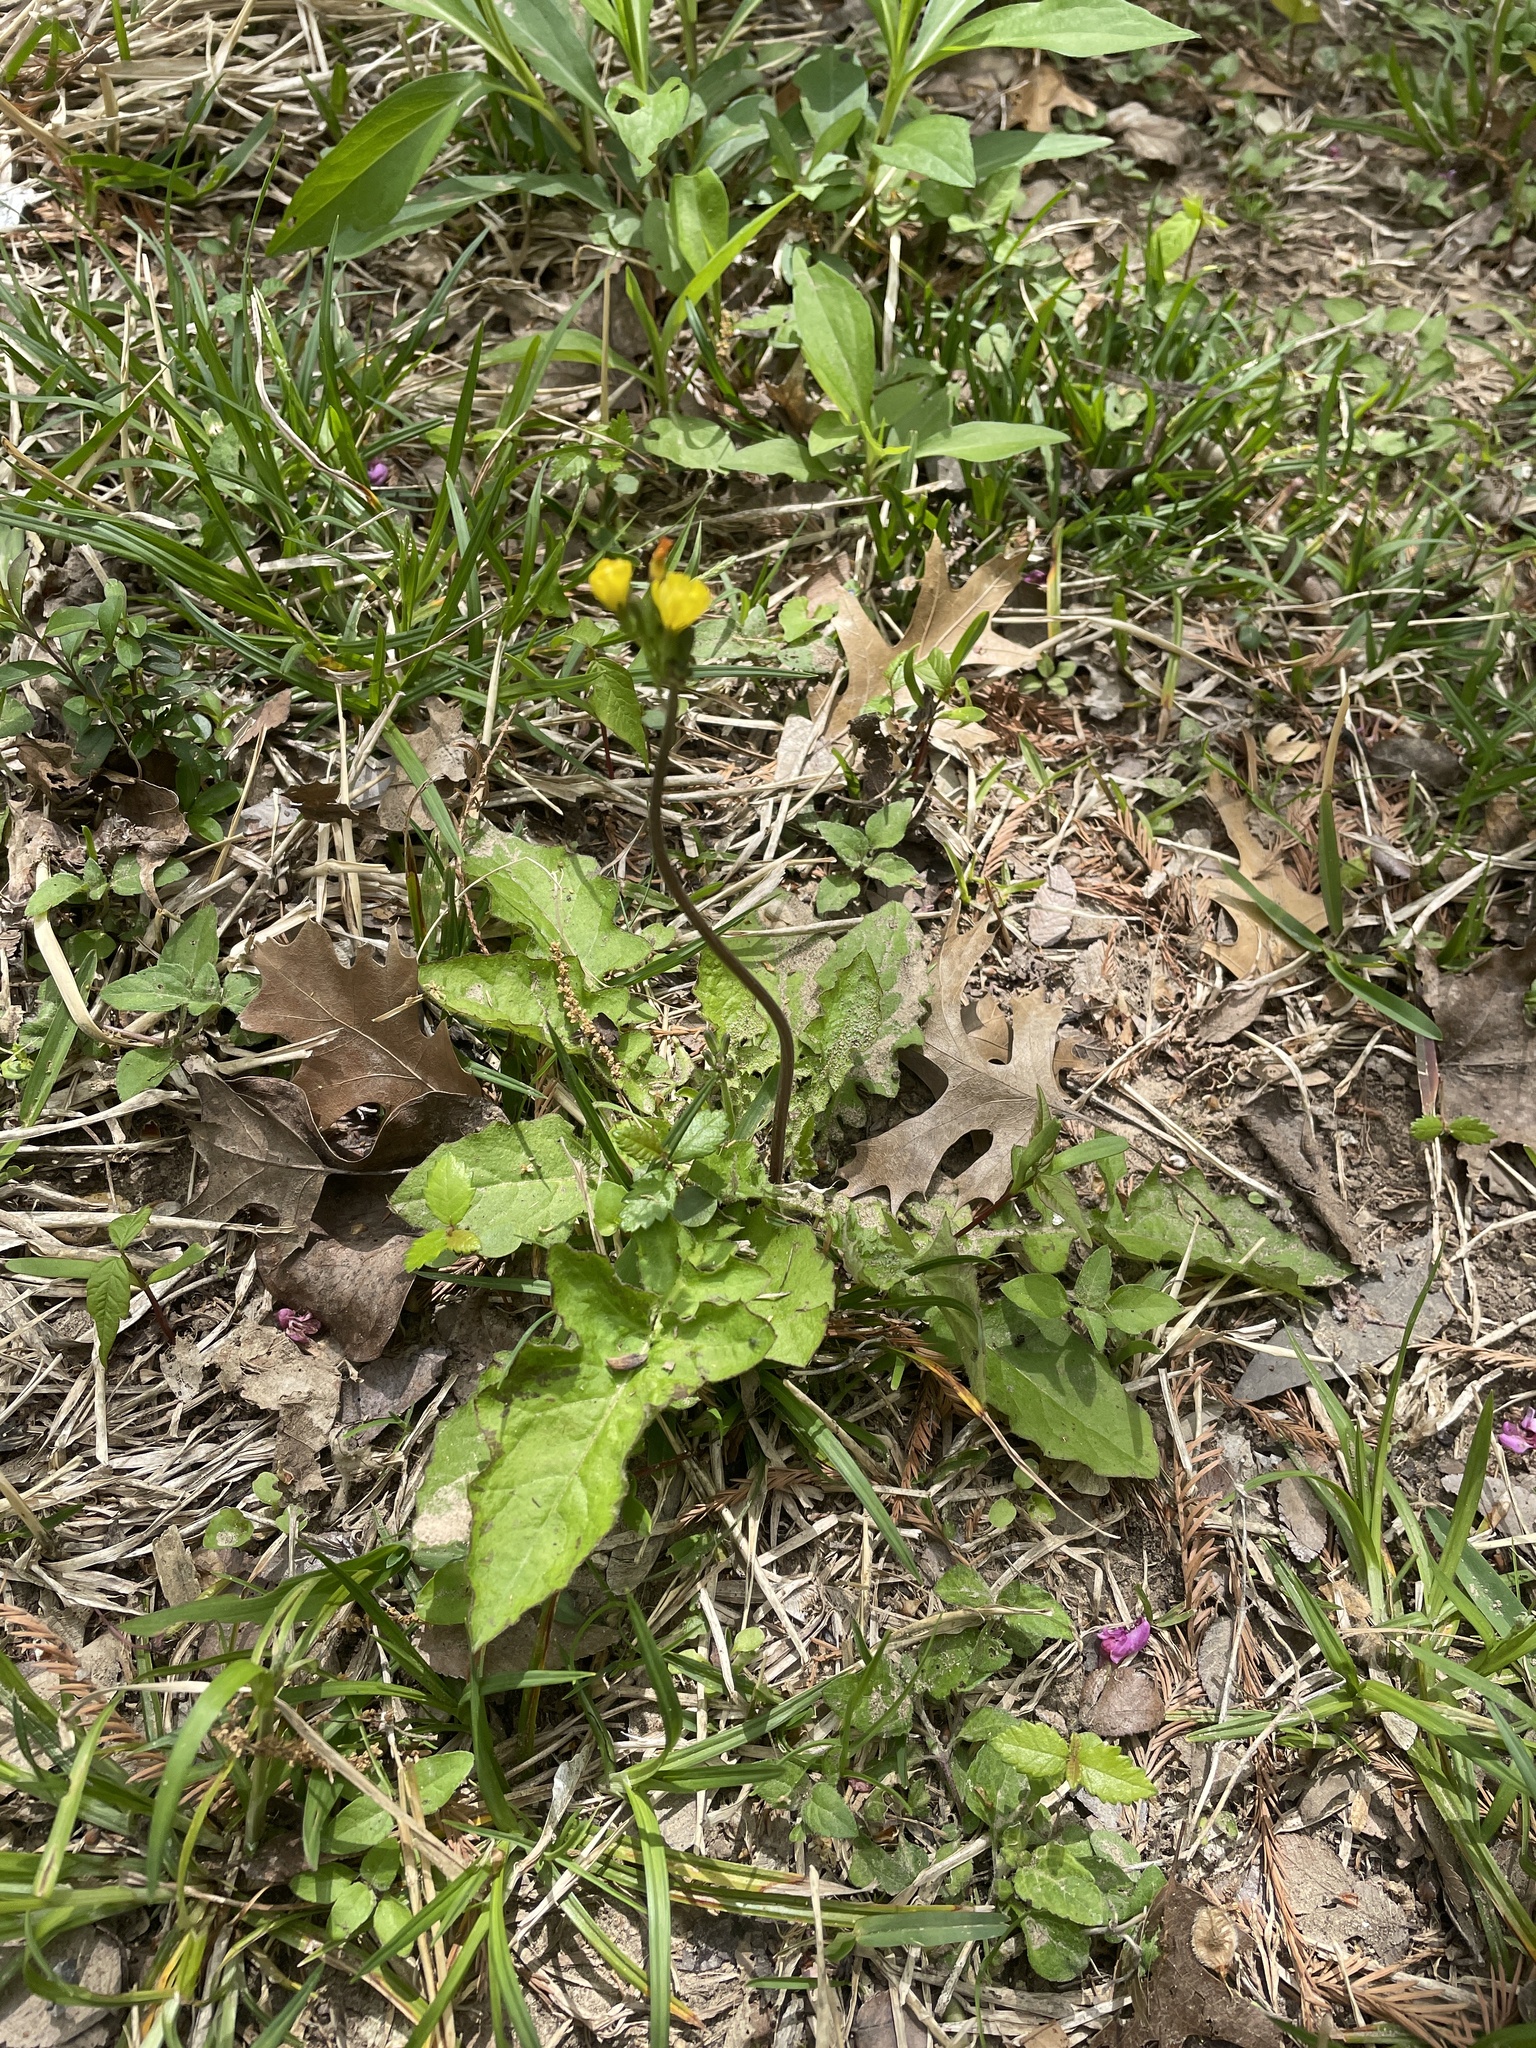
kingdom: Plantae
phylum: Tracheophyta
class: Magnoliopsida
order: Asterales
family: Asteraceae
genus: Youngia
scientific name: Youngia japonica
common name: Oriental false hawksbeard
